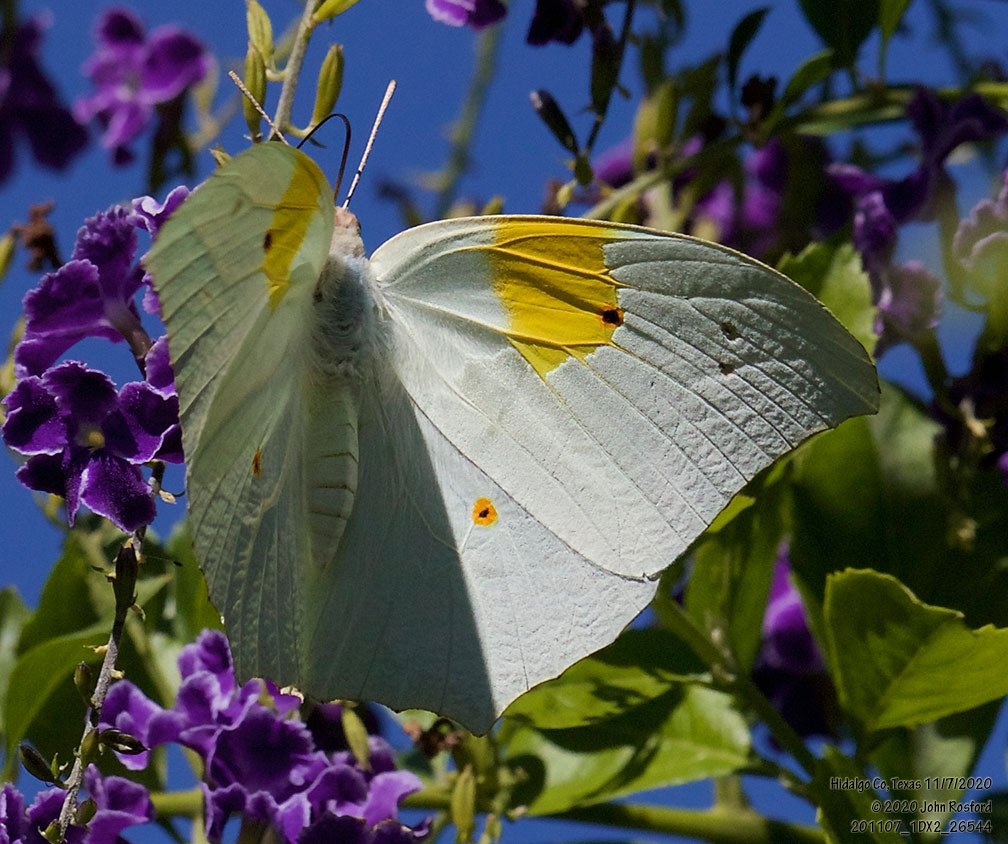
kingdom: Animalia
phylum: Arthropoda
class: Insecta
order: Lepidoptera
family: Pieridae
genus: Anteos
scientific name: Anteos clorinde
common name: White angled sulphur
